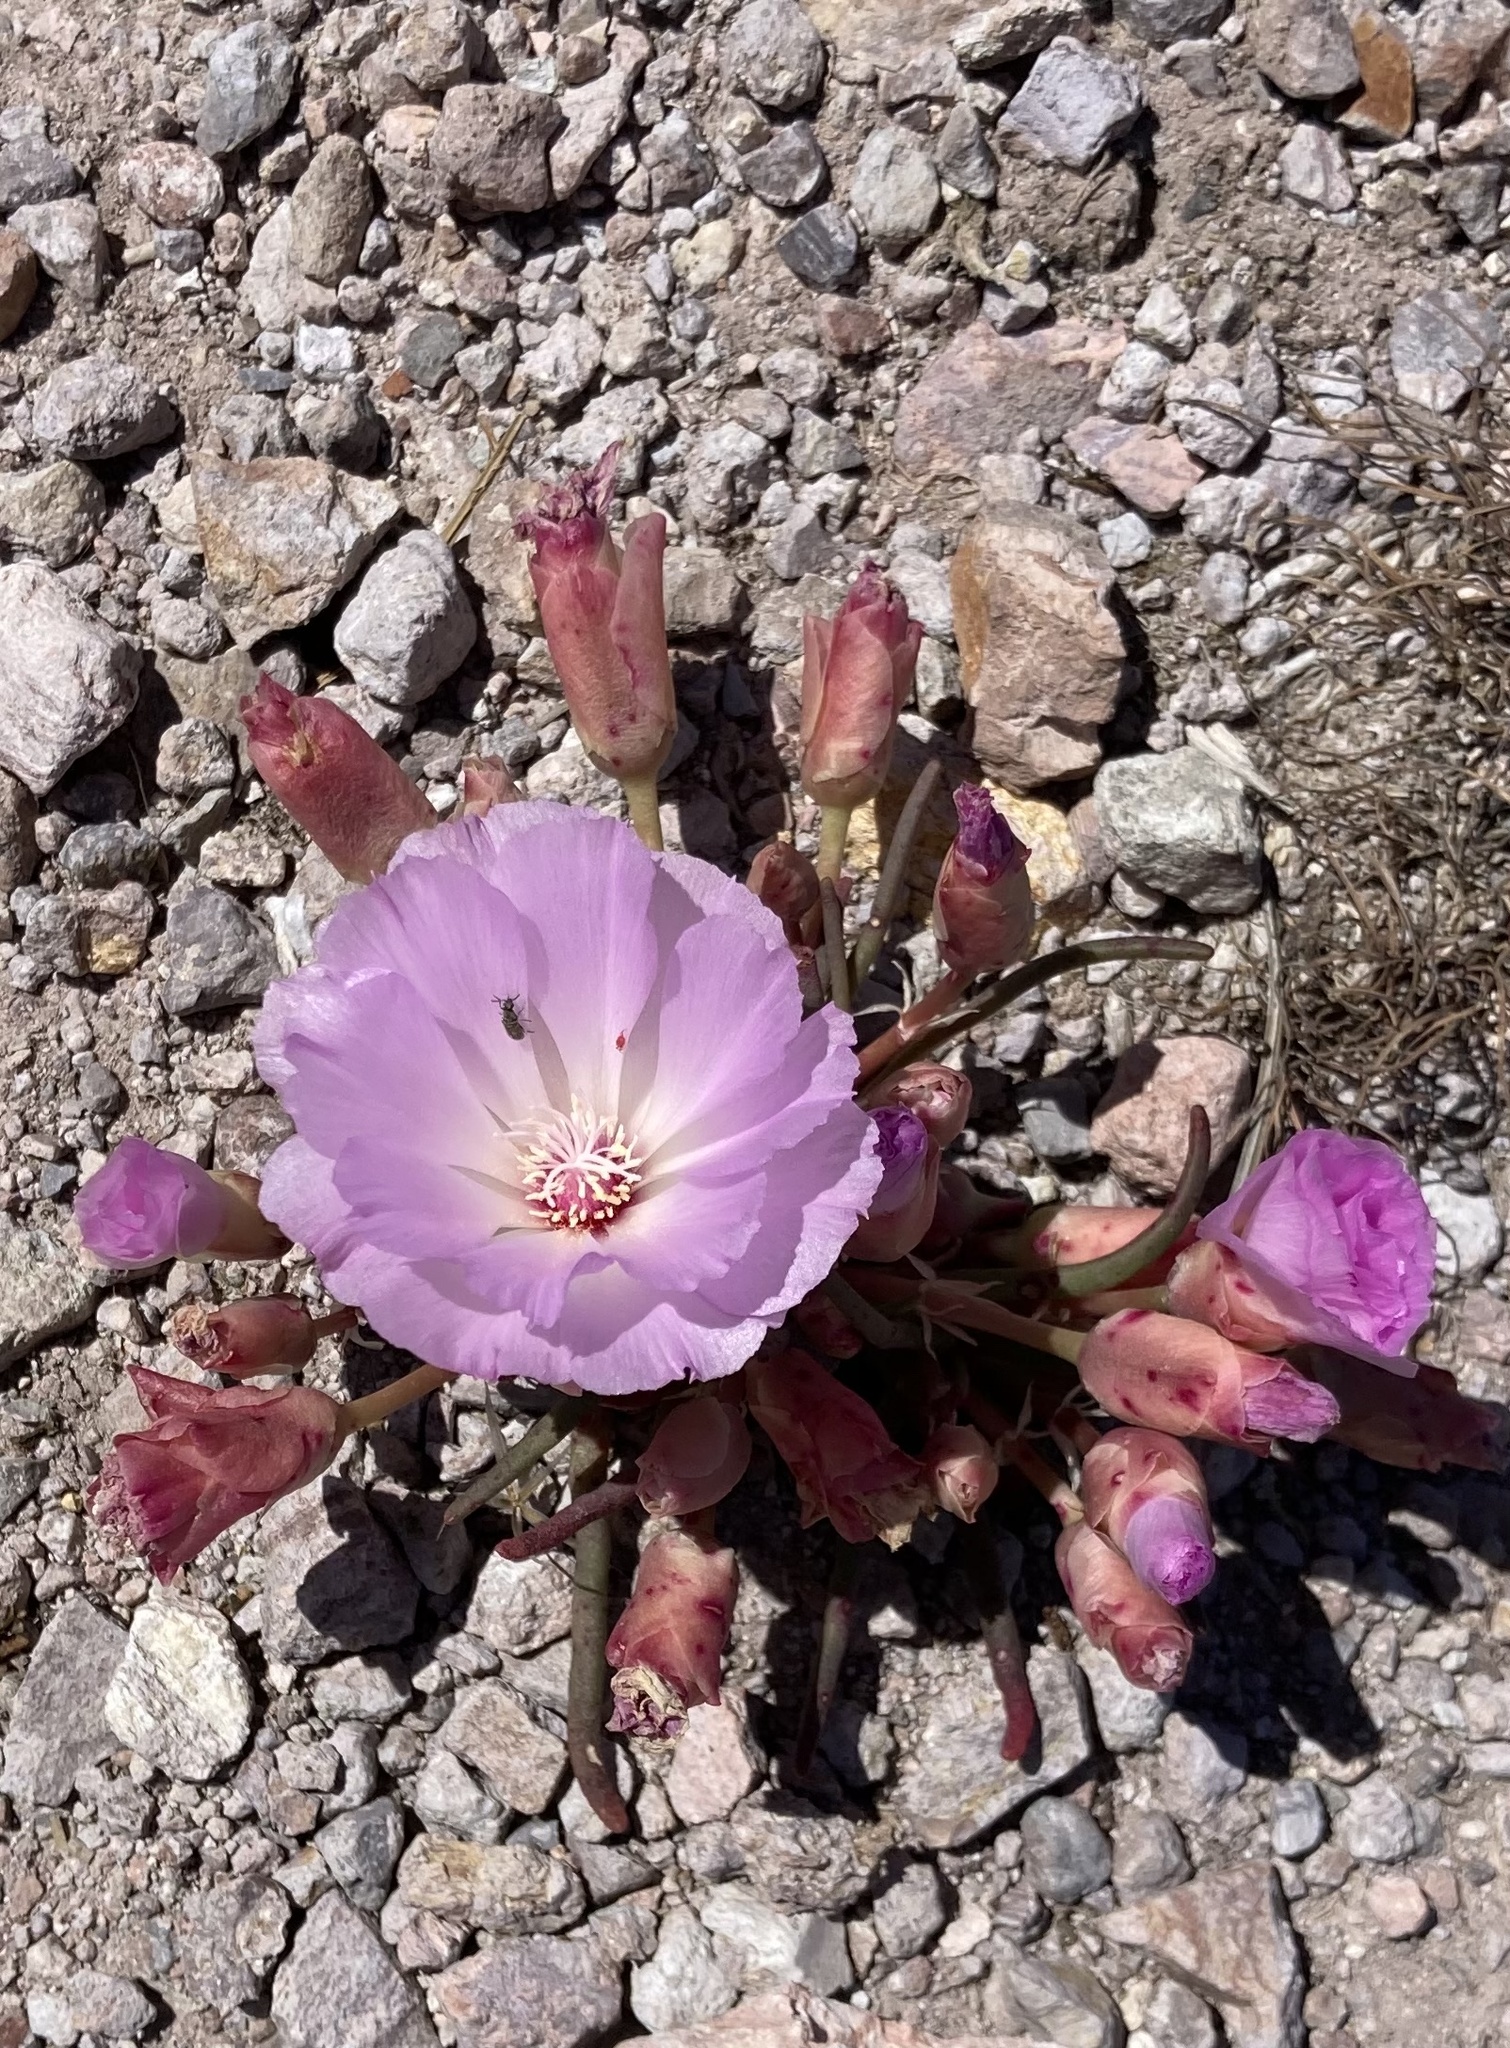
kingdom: Plantae
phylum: Tracheophyta
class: Magnoliopsida
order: Caryophyllales
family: Montiaceae
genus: Lewisia
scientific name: Lewisia rediviva
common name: Bitter-root
